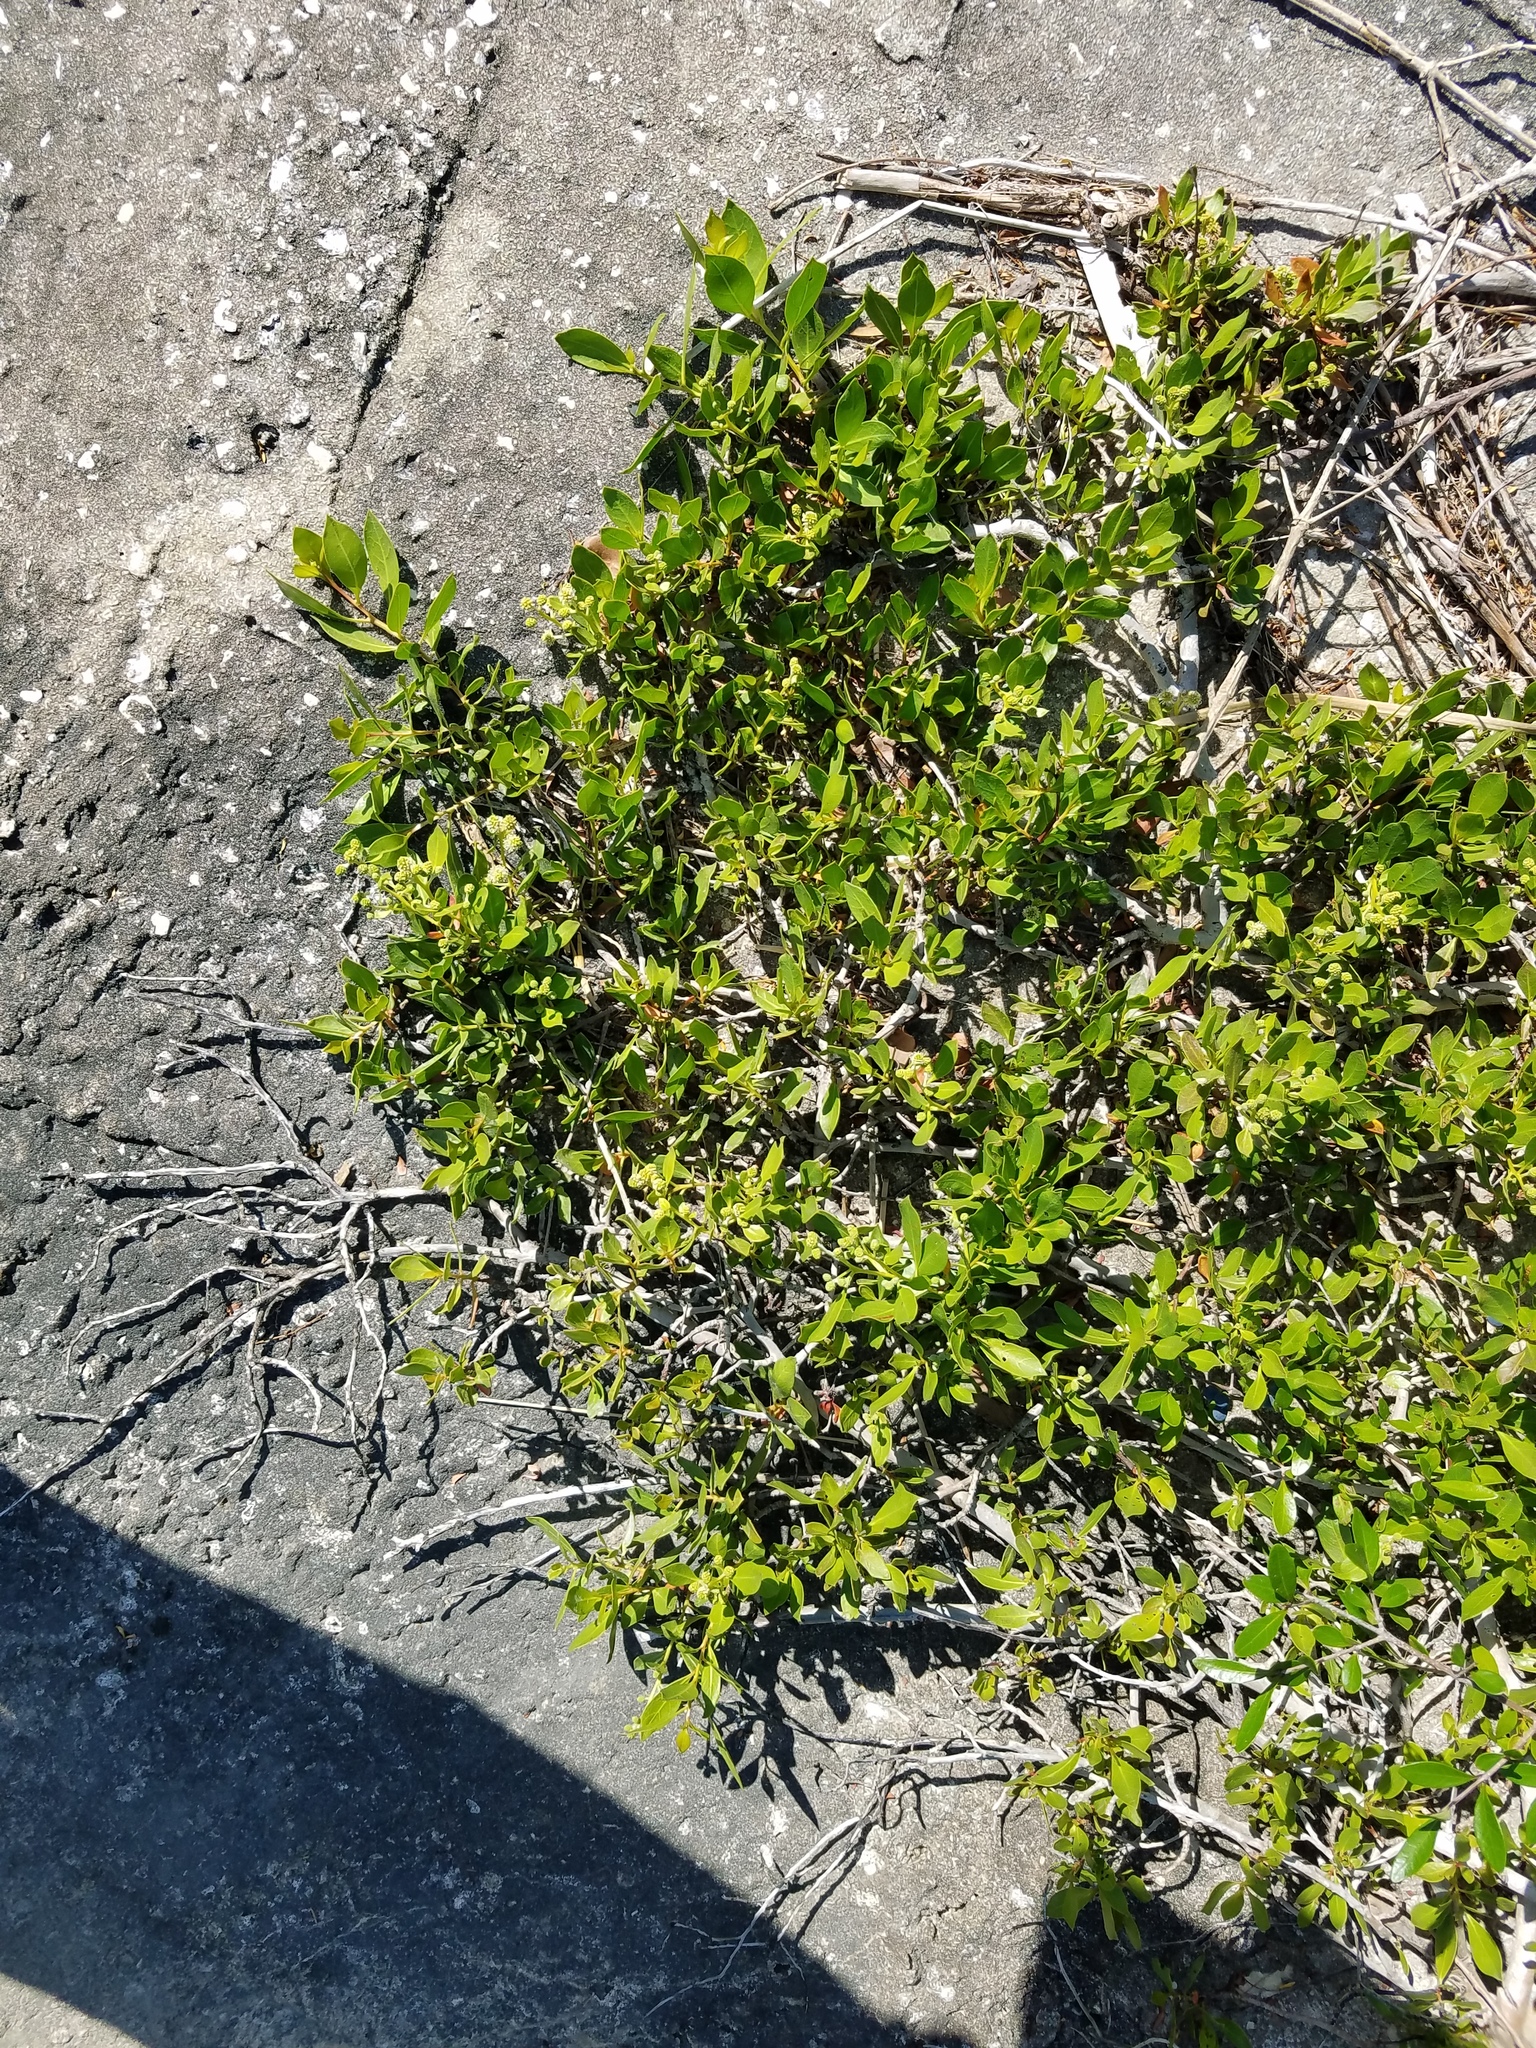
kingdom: Plantae
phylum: Tracheophyta
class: Magnoliopsida
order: Myrtales
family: Combretaceae
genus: Conocarpus
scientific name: Conocarpus erectus
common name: Button mangrove
